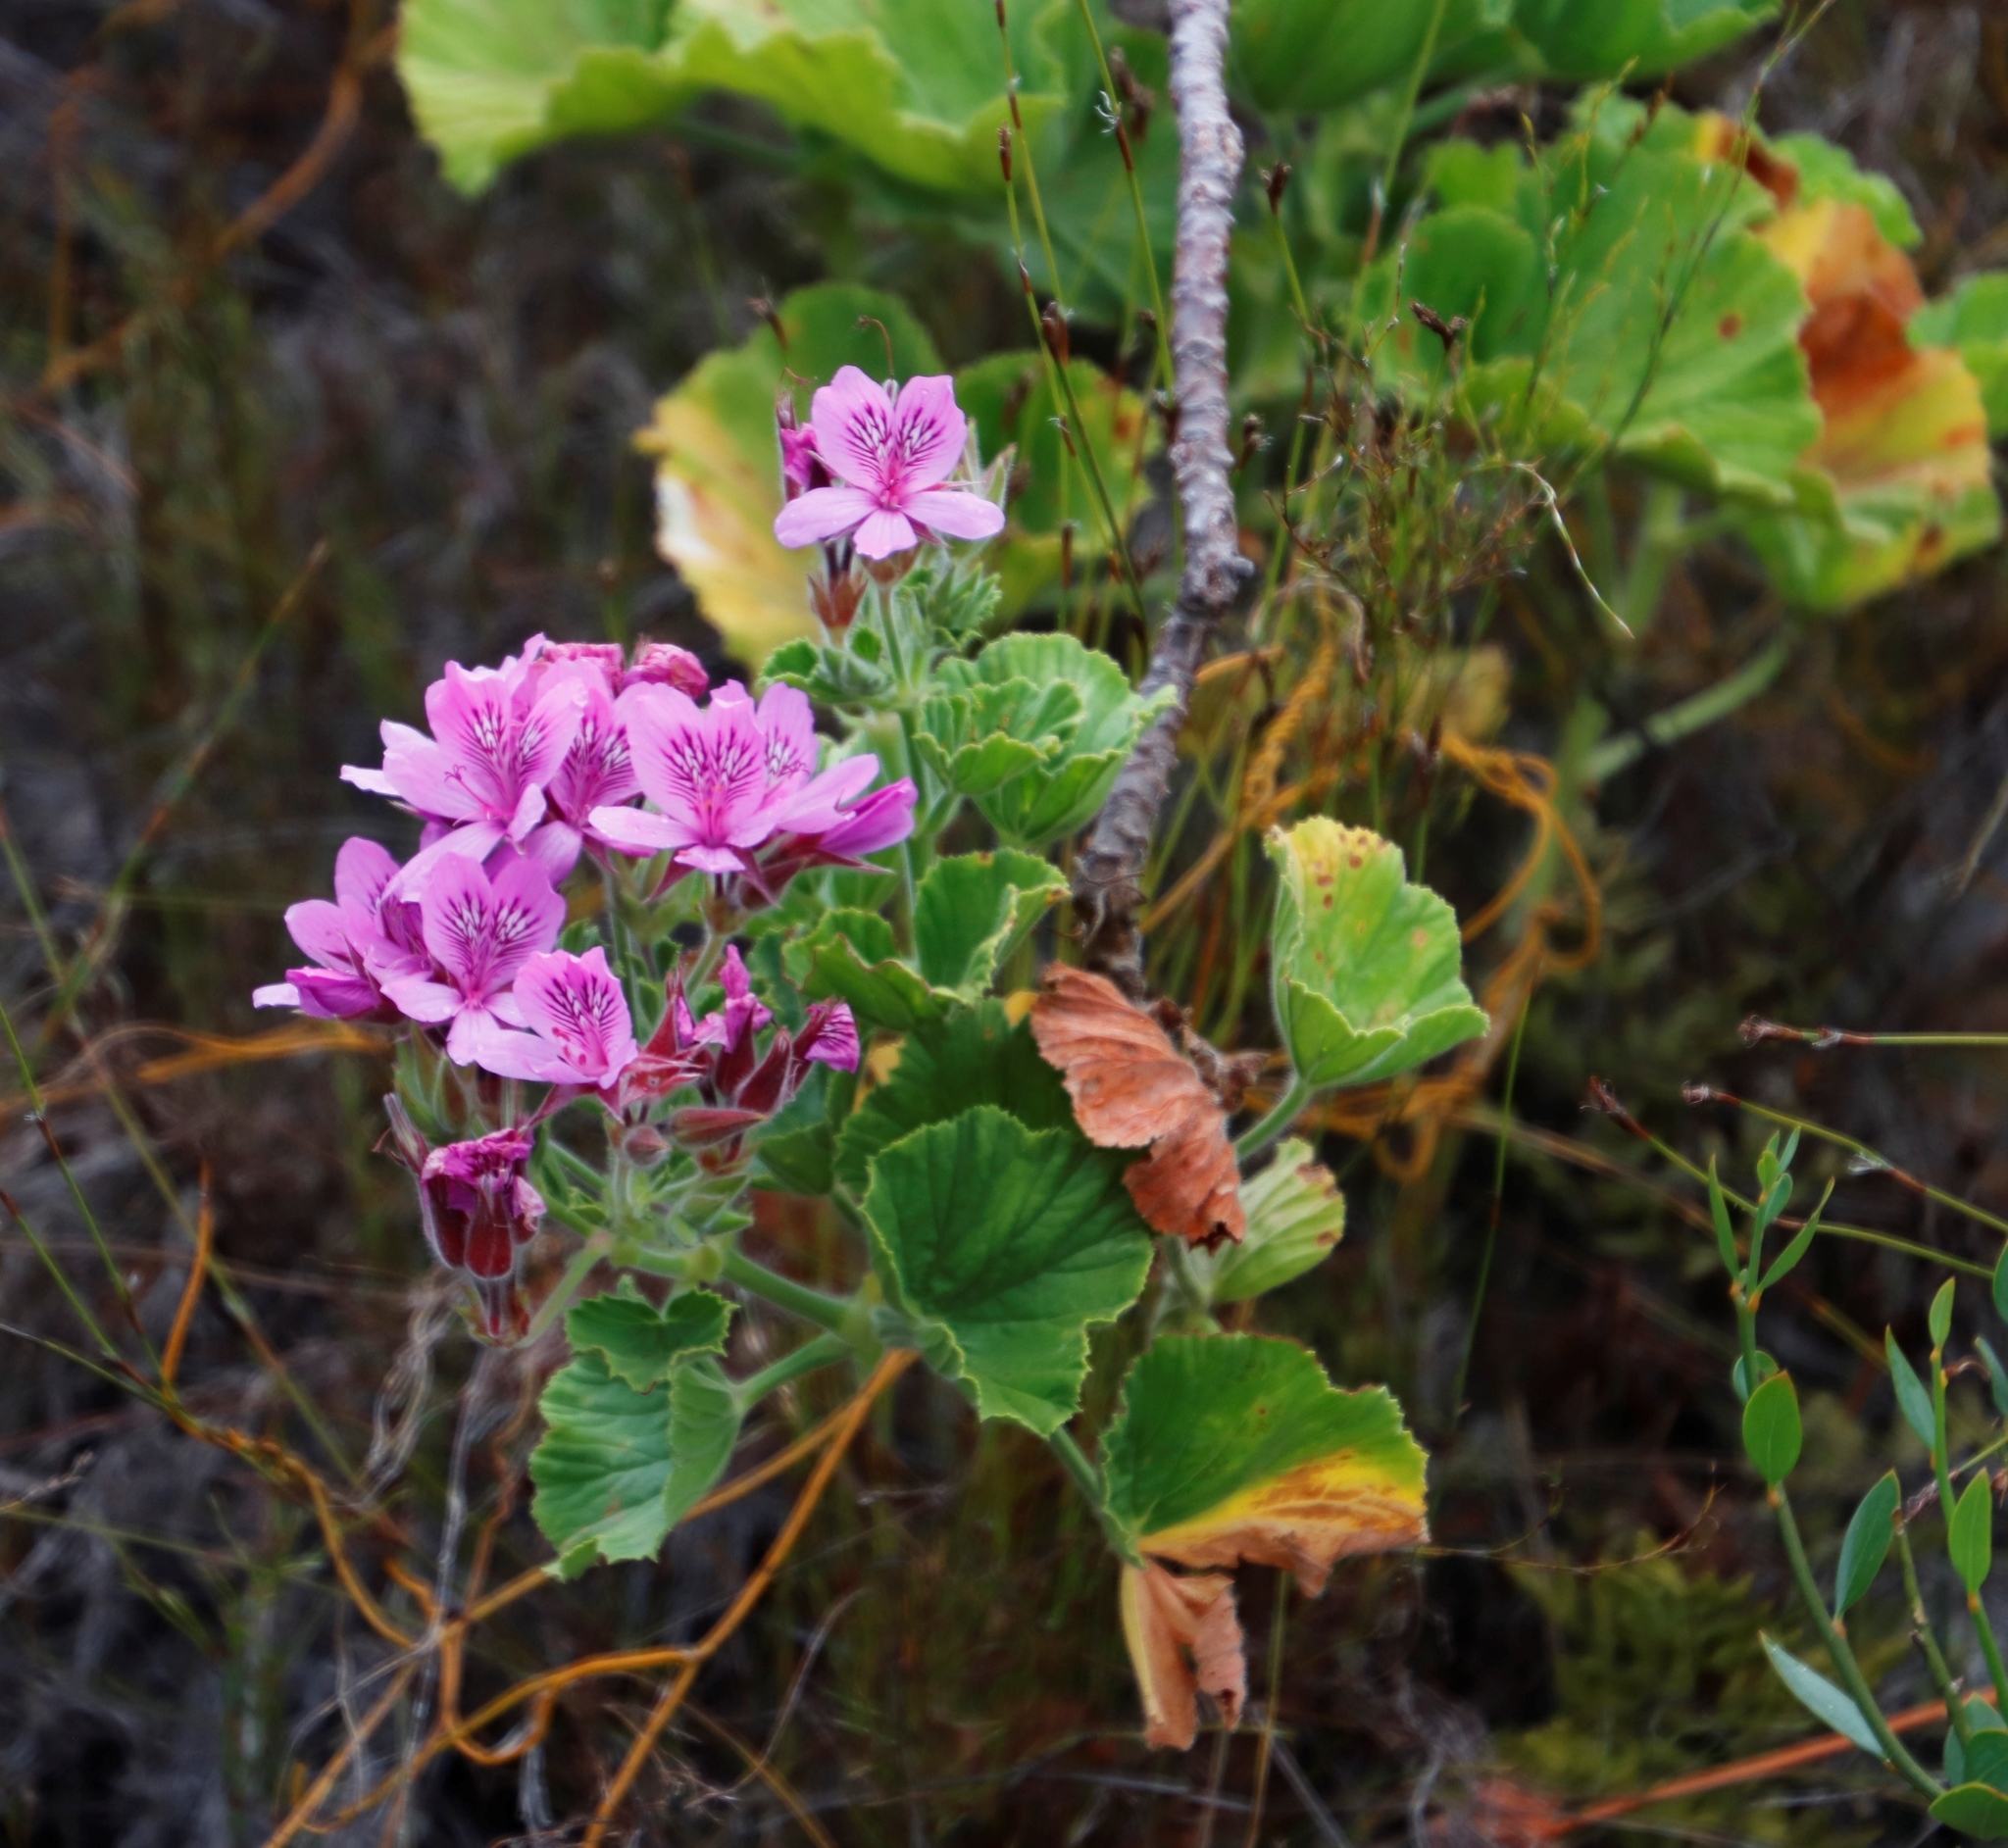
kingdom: Plantae
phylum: Tracheophyta
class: Magnoliopsida
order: Geraniales
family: Geraniaceae
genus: Pelargonium
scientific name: Pelargonium cucullatum
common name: Tree pelargonium
